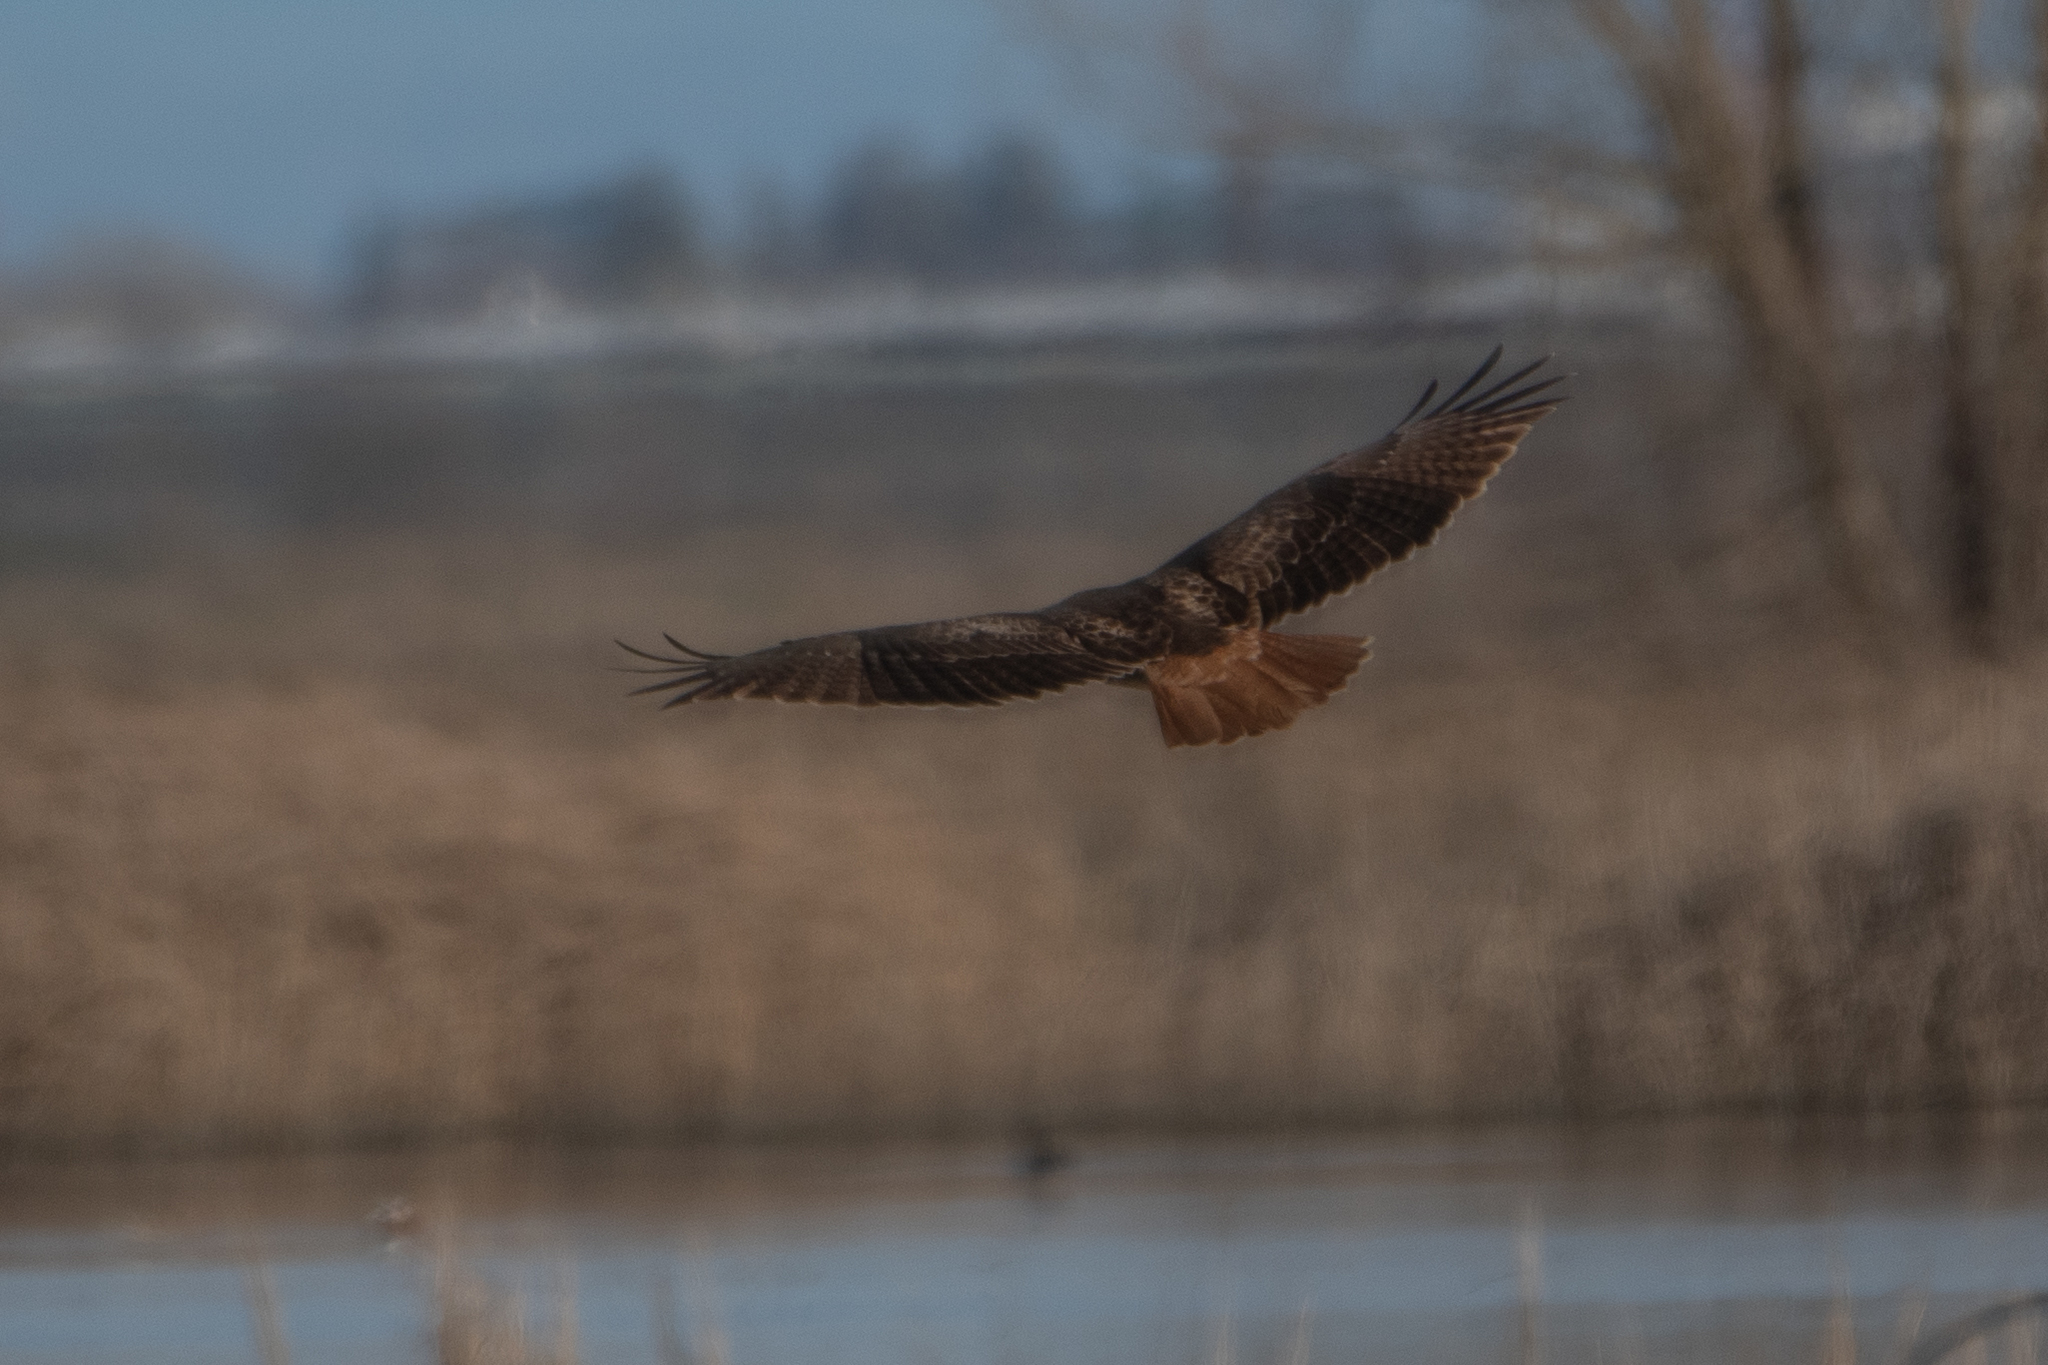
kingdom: Animalia
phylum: Chordata
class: Aves
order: Accipitriformes
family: Accipitridae
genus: Buteo
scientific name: Buteo jamaicensis
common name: Red-tailed hawk
